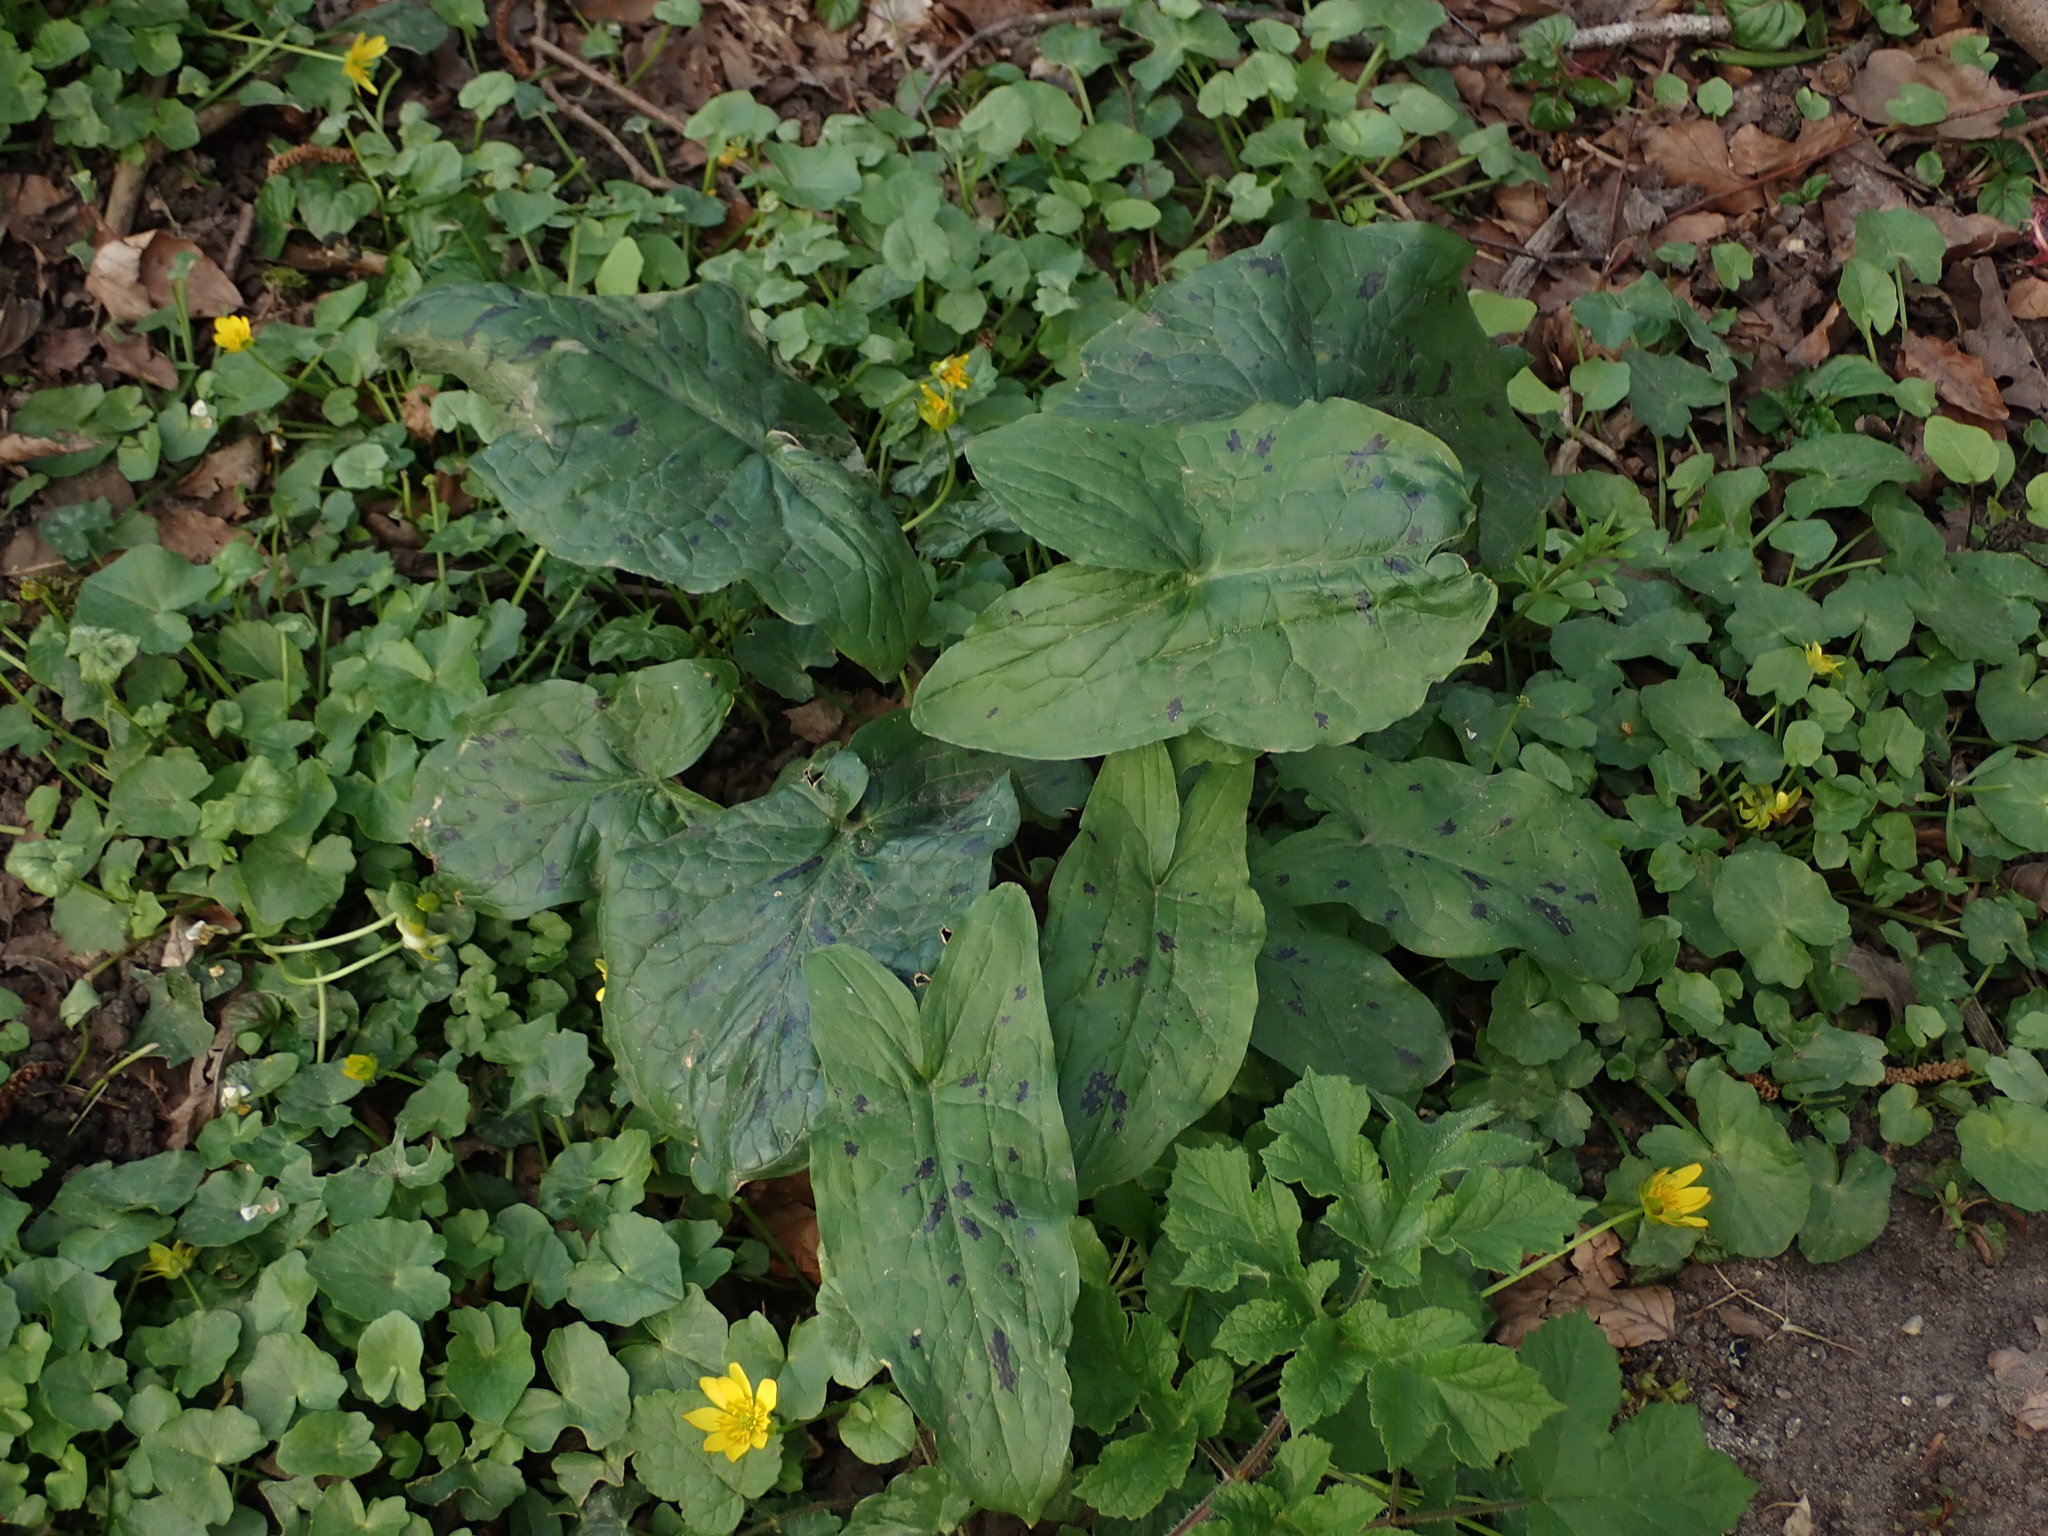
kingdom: Plantae
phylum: Tracheophyta
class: Liliopsida
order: Alismatales
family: Araceae
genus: Arum
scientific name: Arum maculatum
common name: Lords-and-ladies
